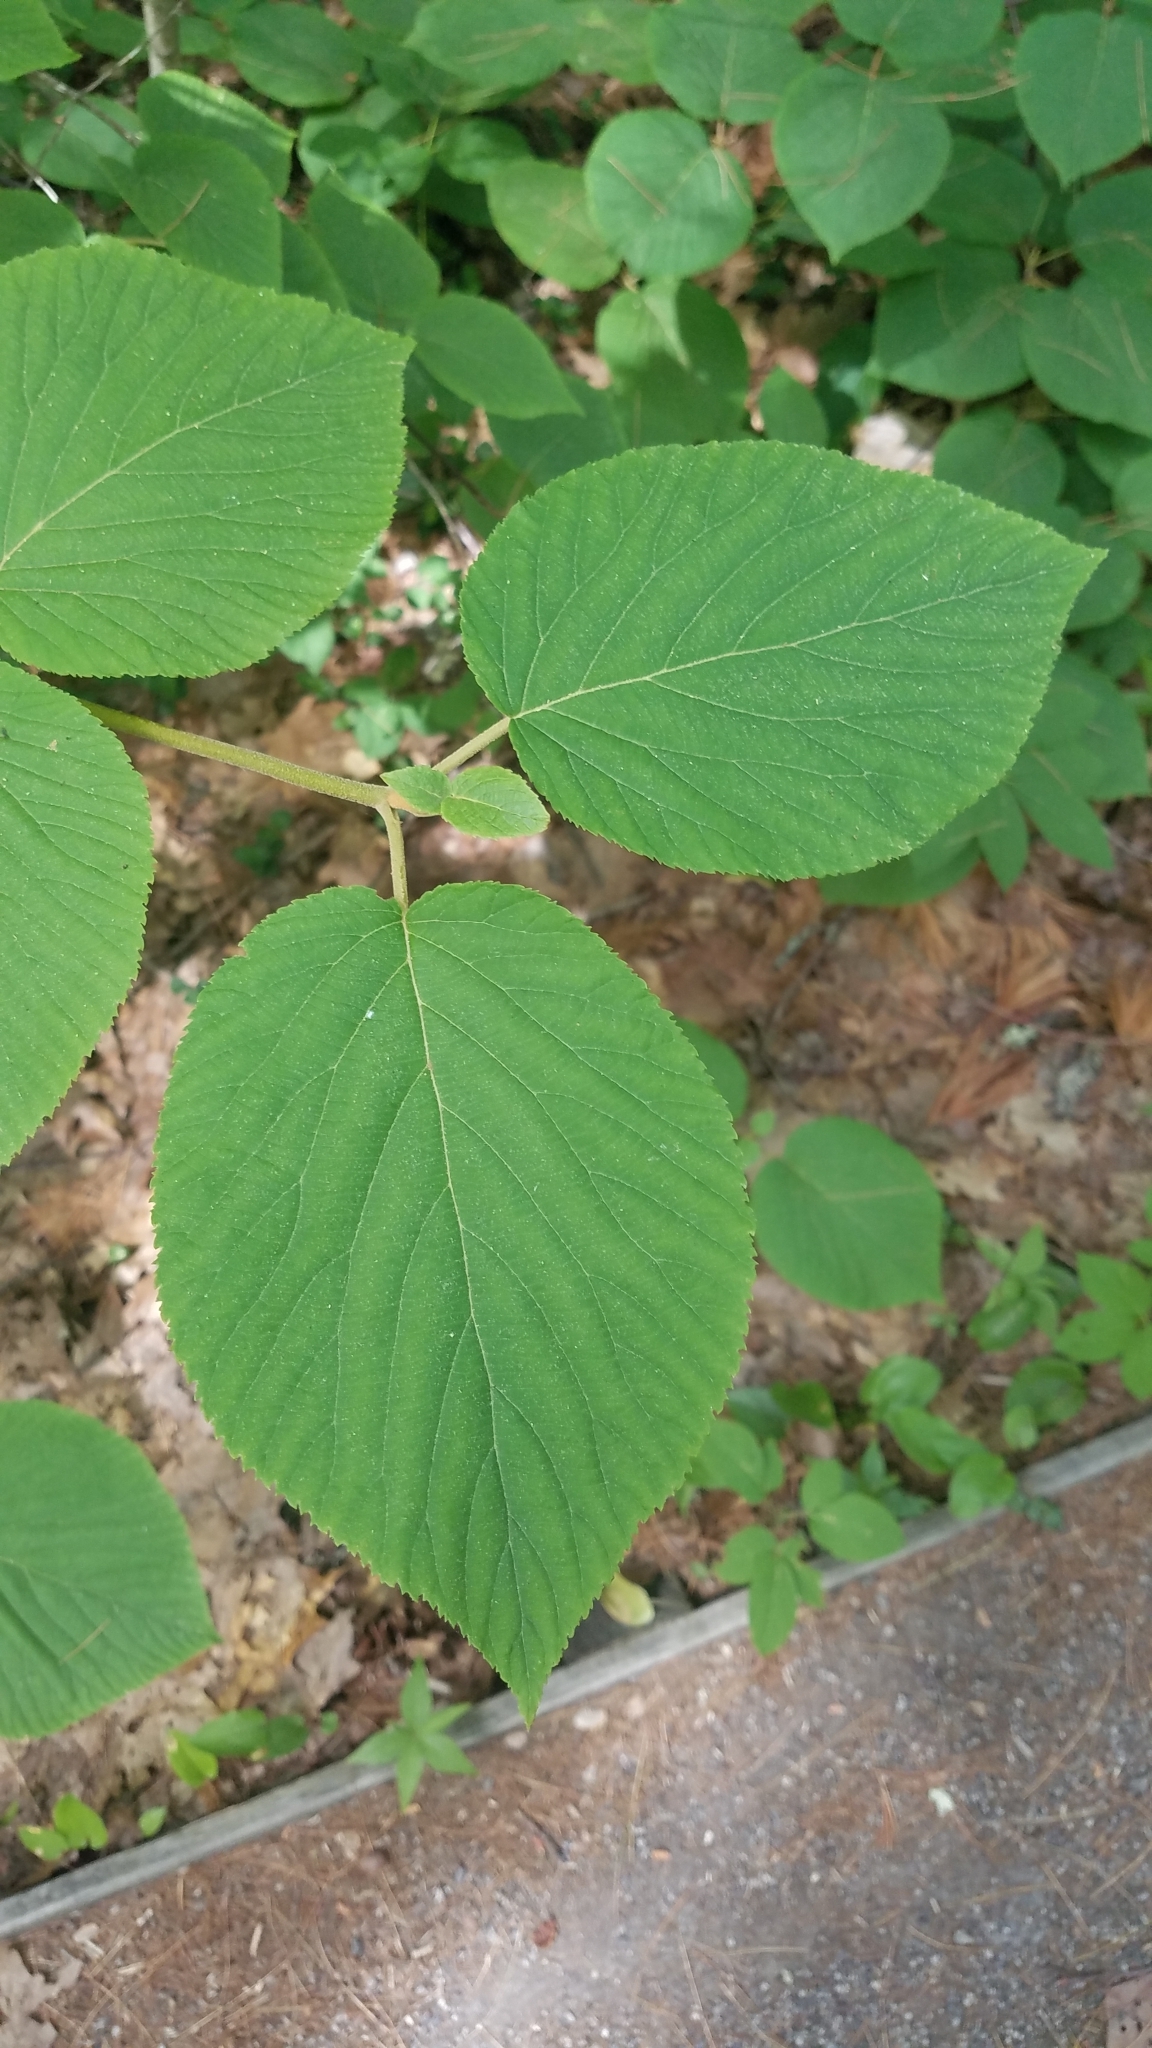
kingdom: Plantae
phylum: Tracheophyta
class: Magnoliopsida
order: Dipsacales
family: Viburnaceae
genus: Viburnum
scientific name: Viburnum lantanoides
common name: Hobblebush
